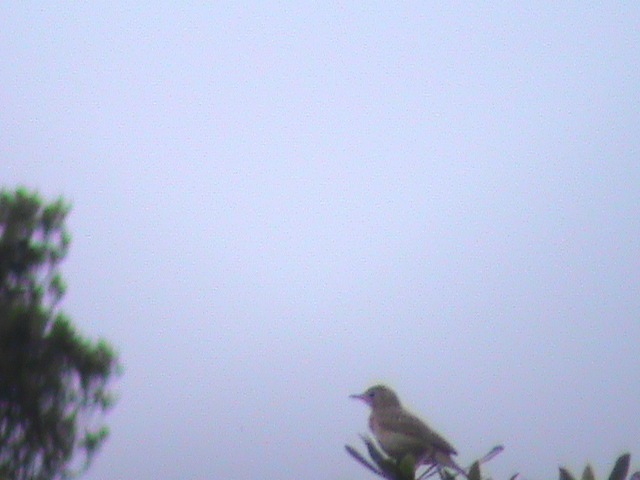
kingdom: Animalia
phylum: Chordata
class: Aves
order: Passeriformes
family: Motacillidae
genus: Anthus
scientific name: Anthus rufulus
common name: Paddyfield pipit
